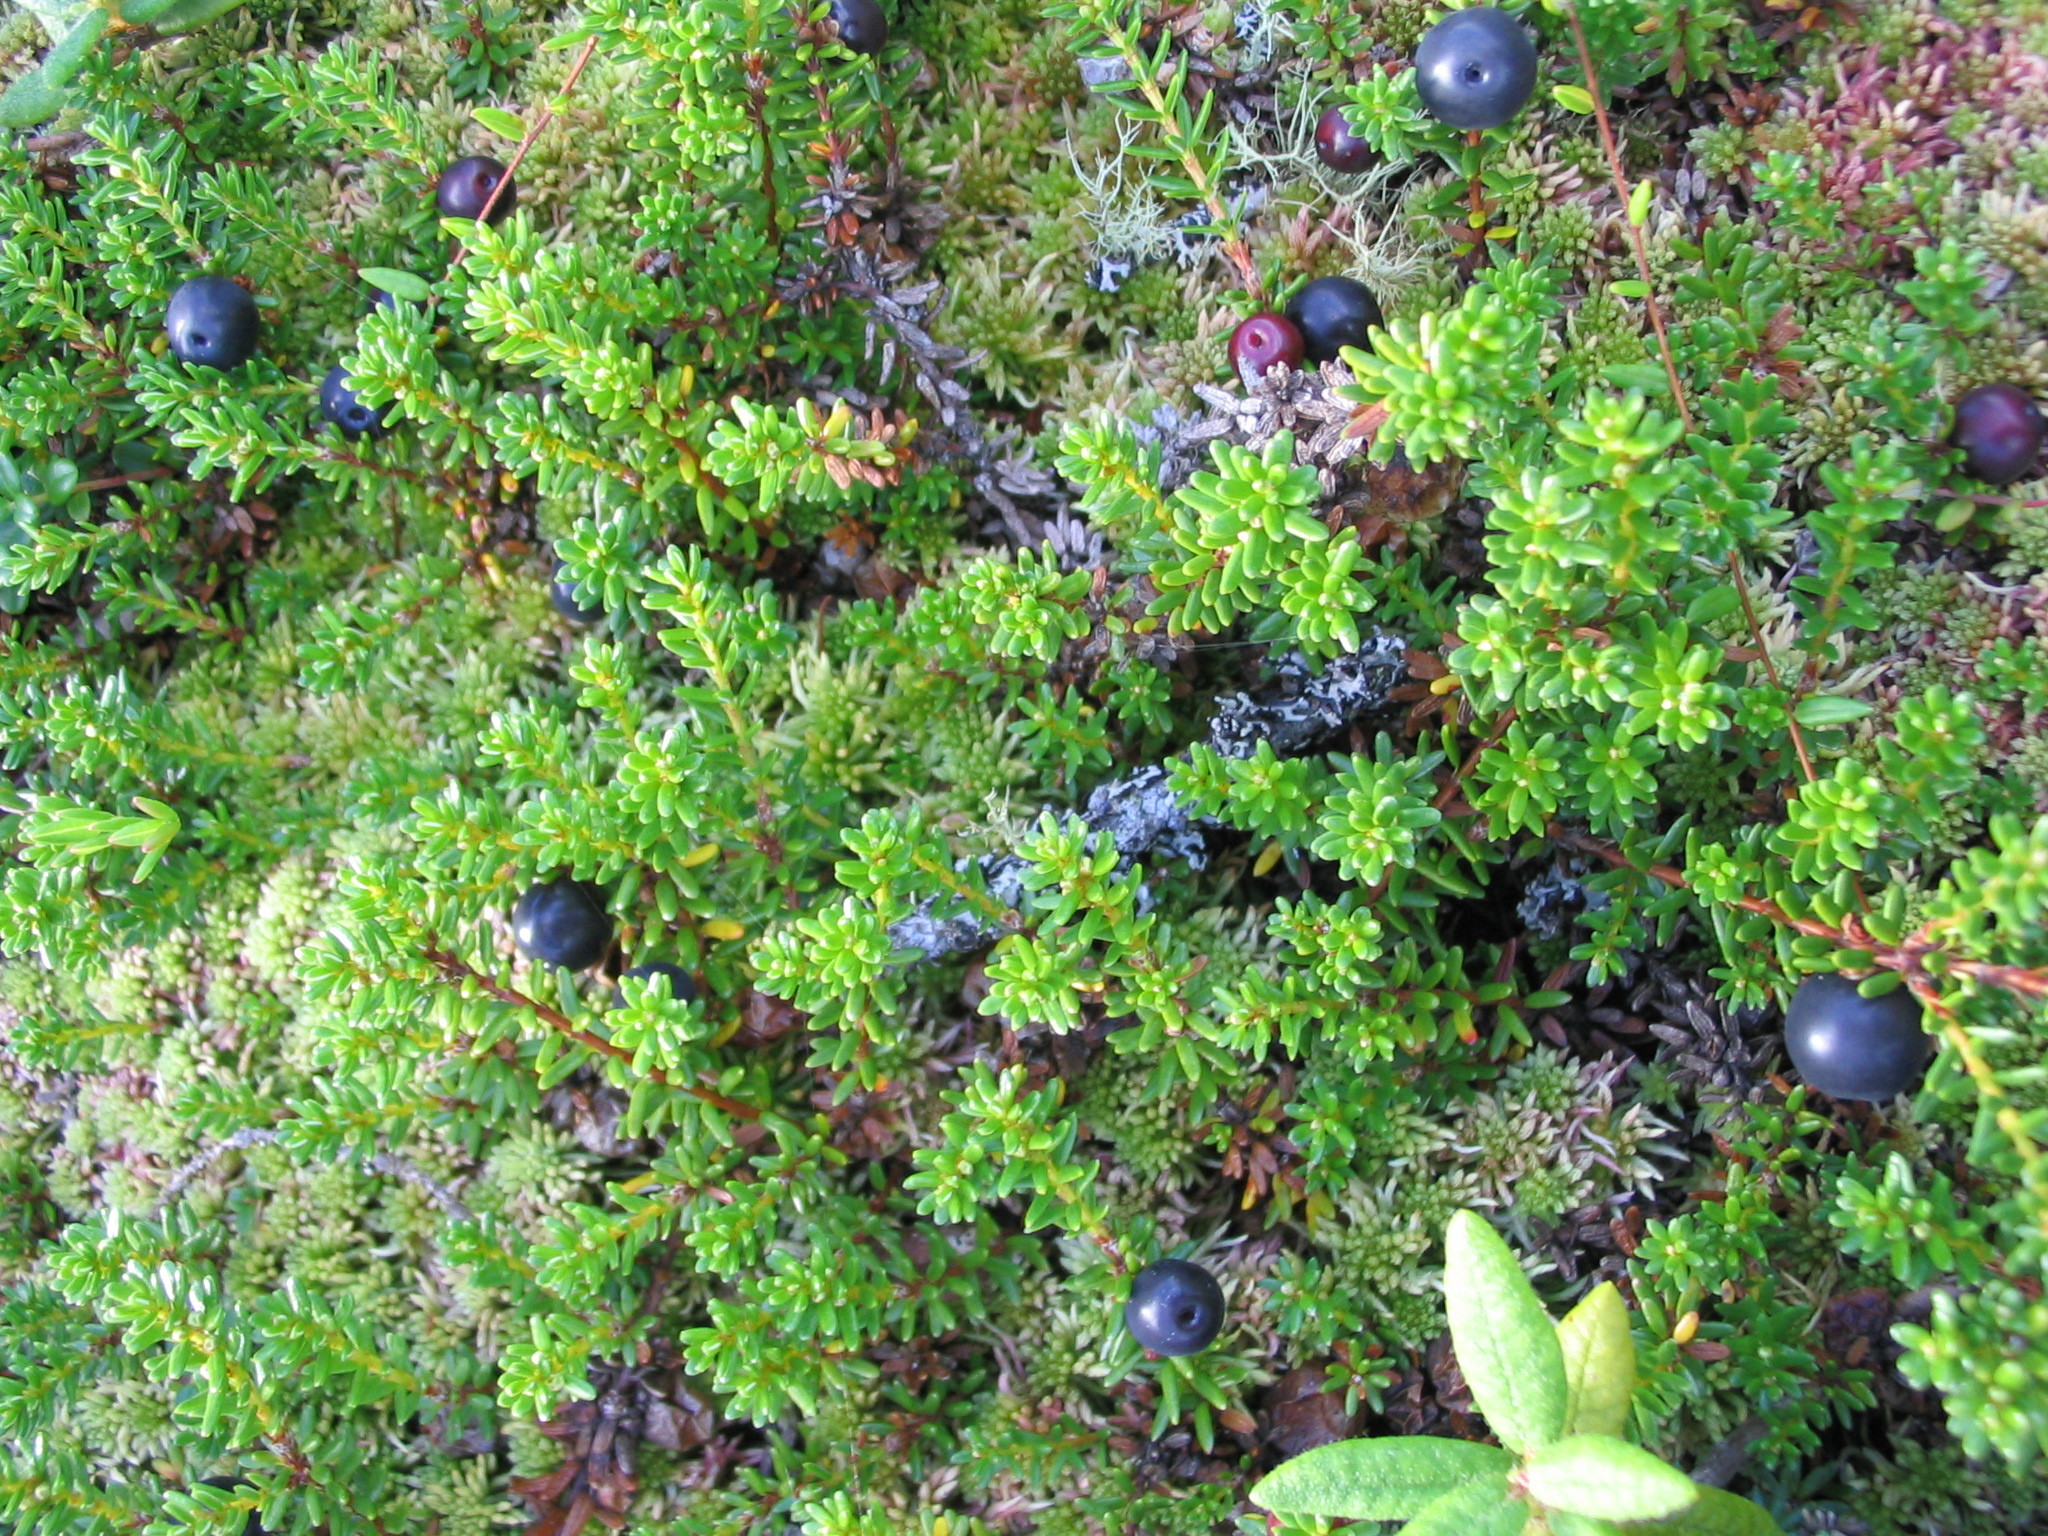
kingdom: Plantae
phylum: Tracheophyta
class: Magnoliopsida
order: Ericales
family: Ericaceae
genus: Empetrum
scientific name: Empetrum nigrum
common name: Black crowberry
